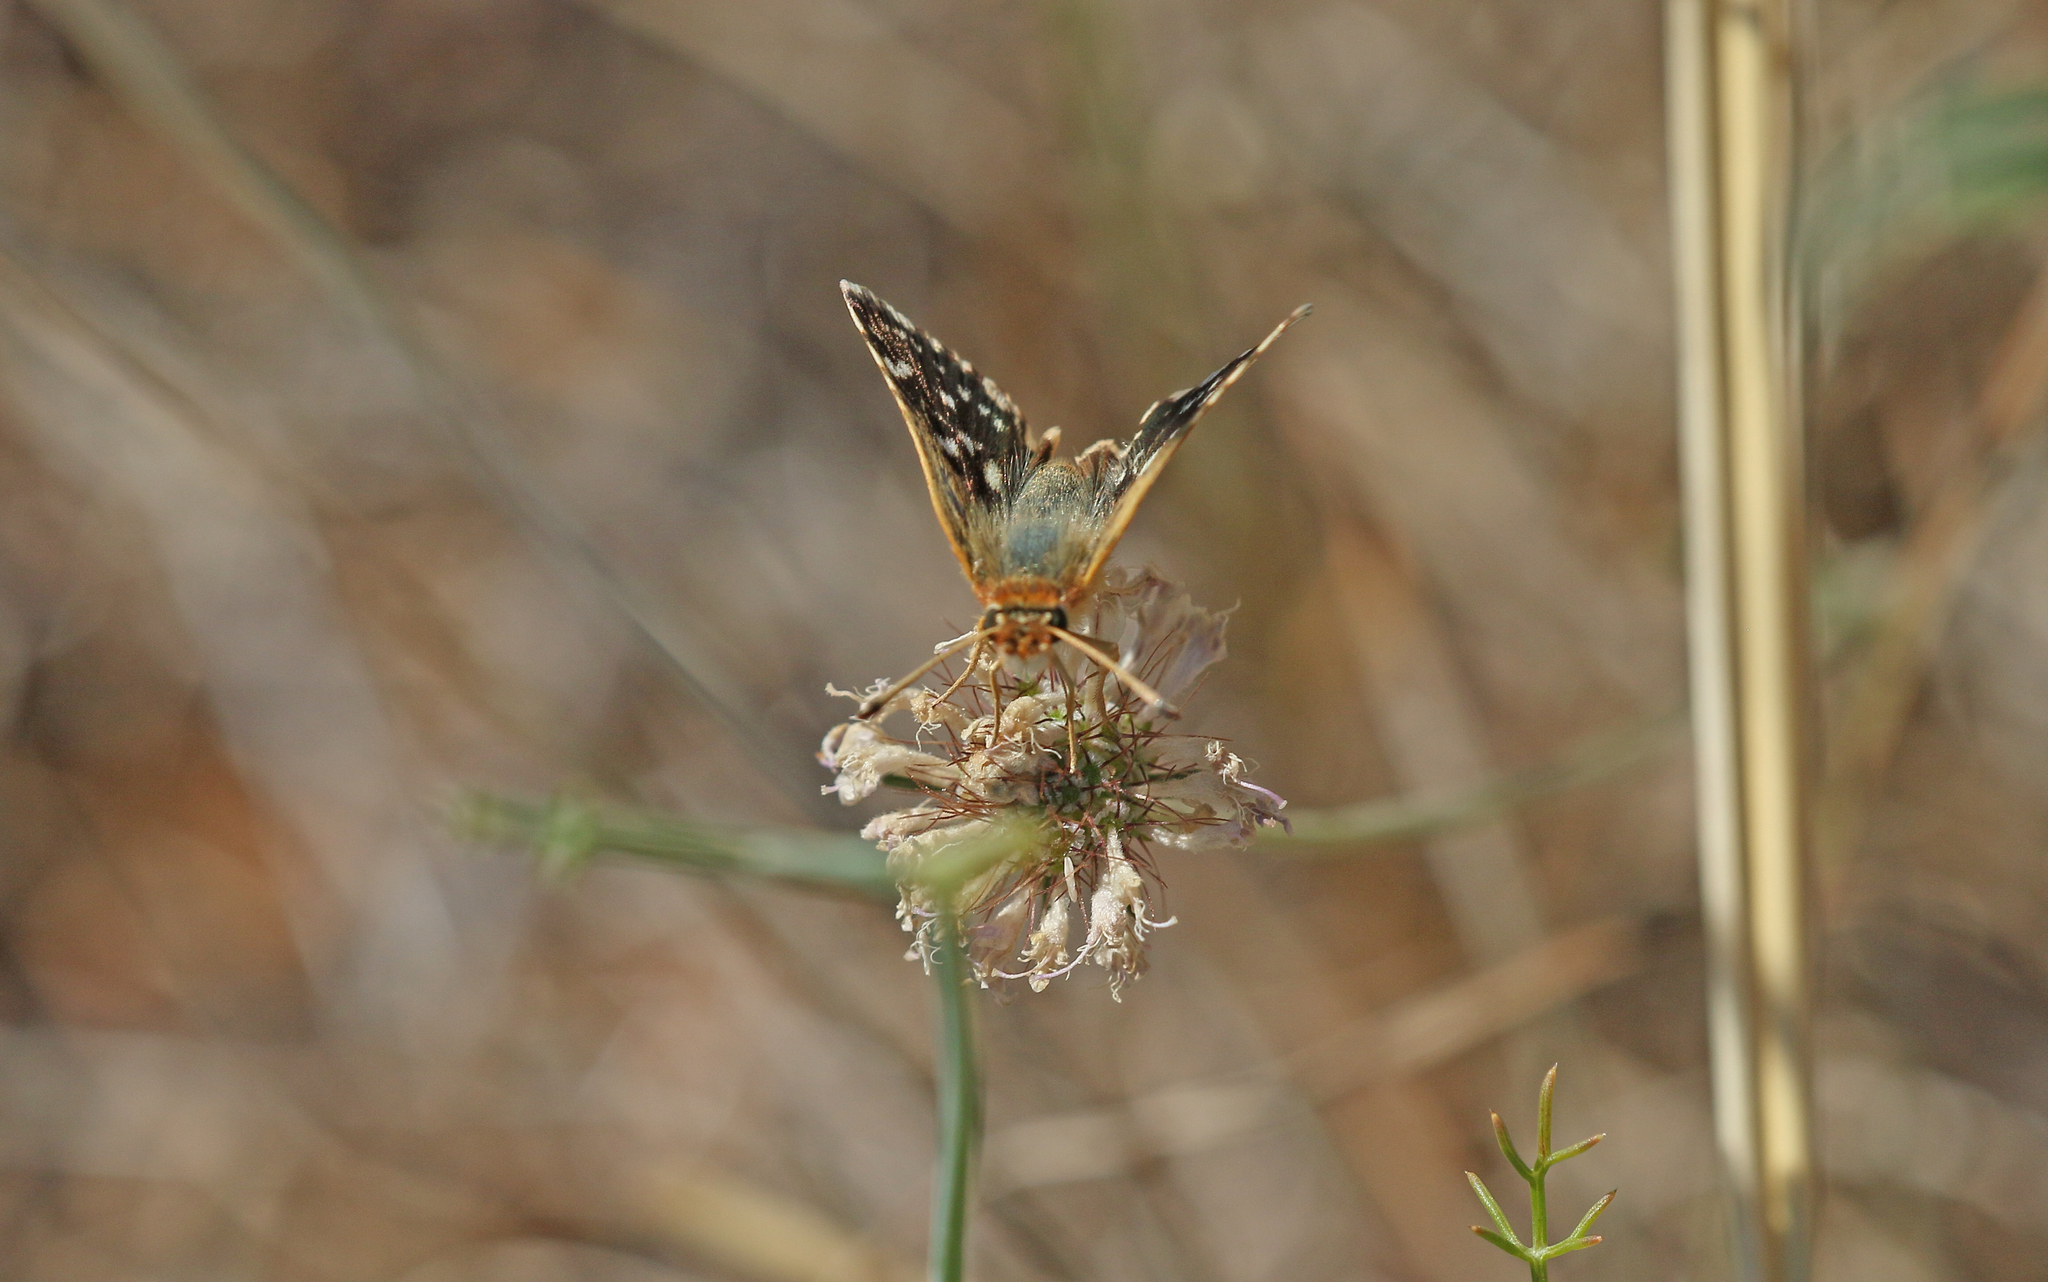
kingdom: Animalia
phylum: Arthropoda
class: Insecta
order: Lepidoptera
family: Hesperiidae
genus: Spialia
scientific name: Spialia sertorius
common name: Red underwing skipper
